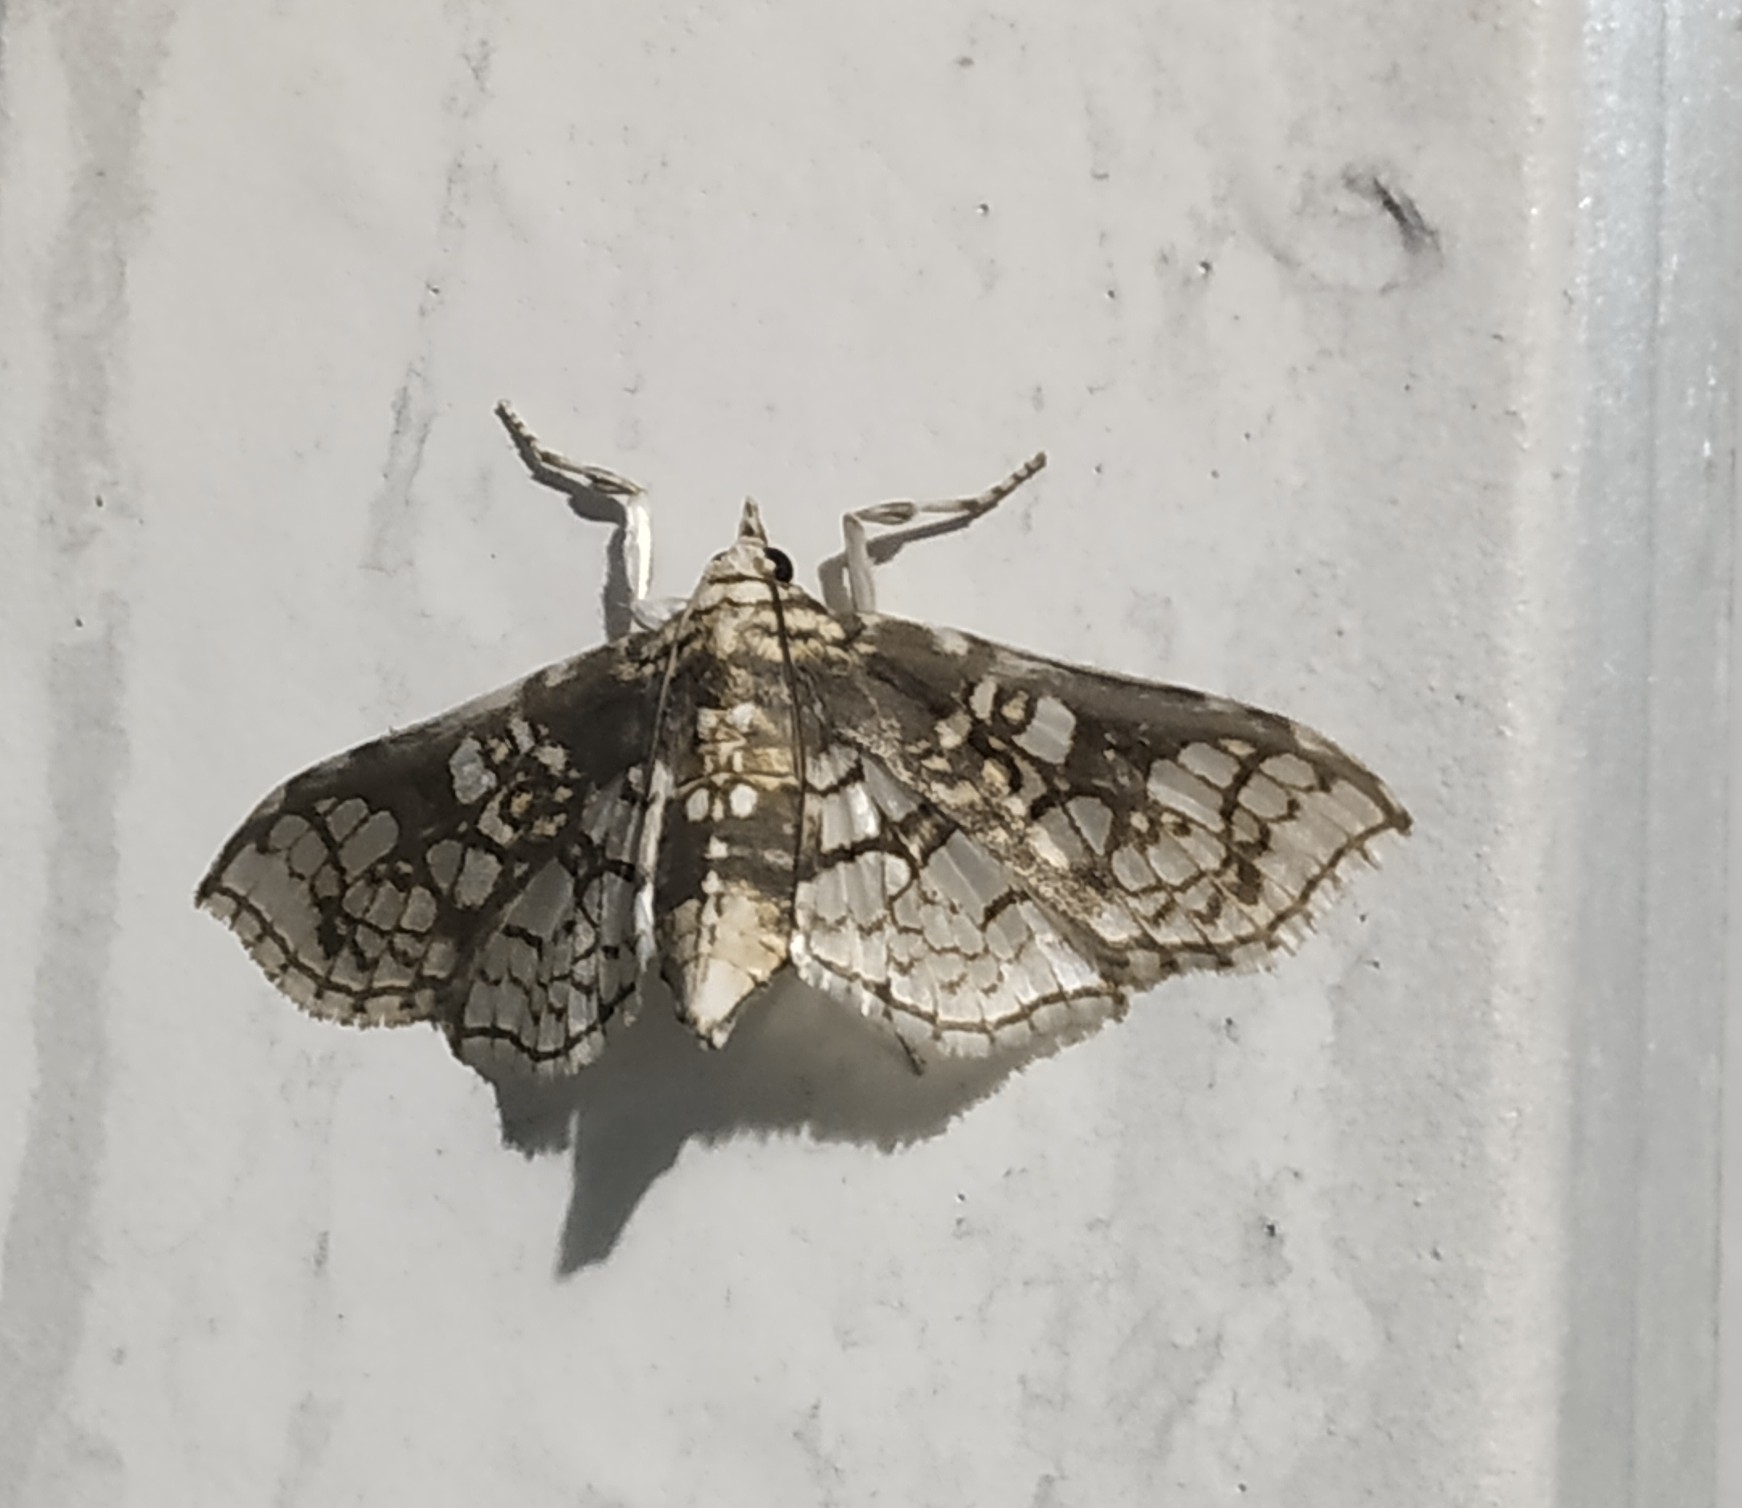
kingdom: Animalia
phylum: Arthropoda
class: Insecta
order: Lepidoptera
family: Crambidae
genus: Megastes
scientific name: Megastes praxiteles
